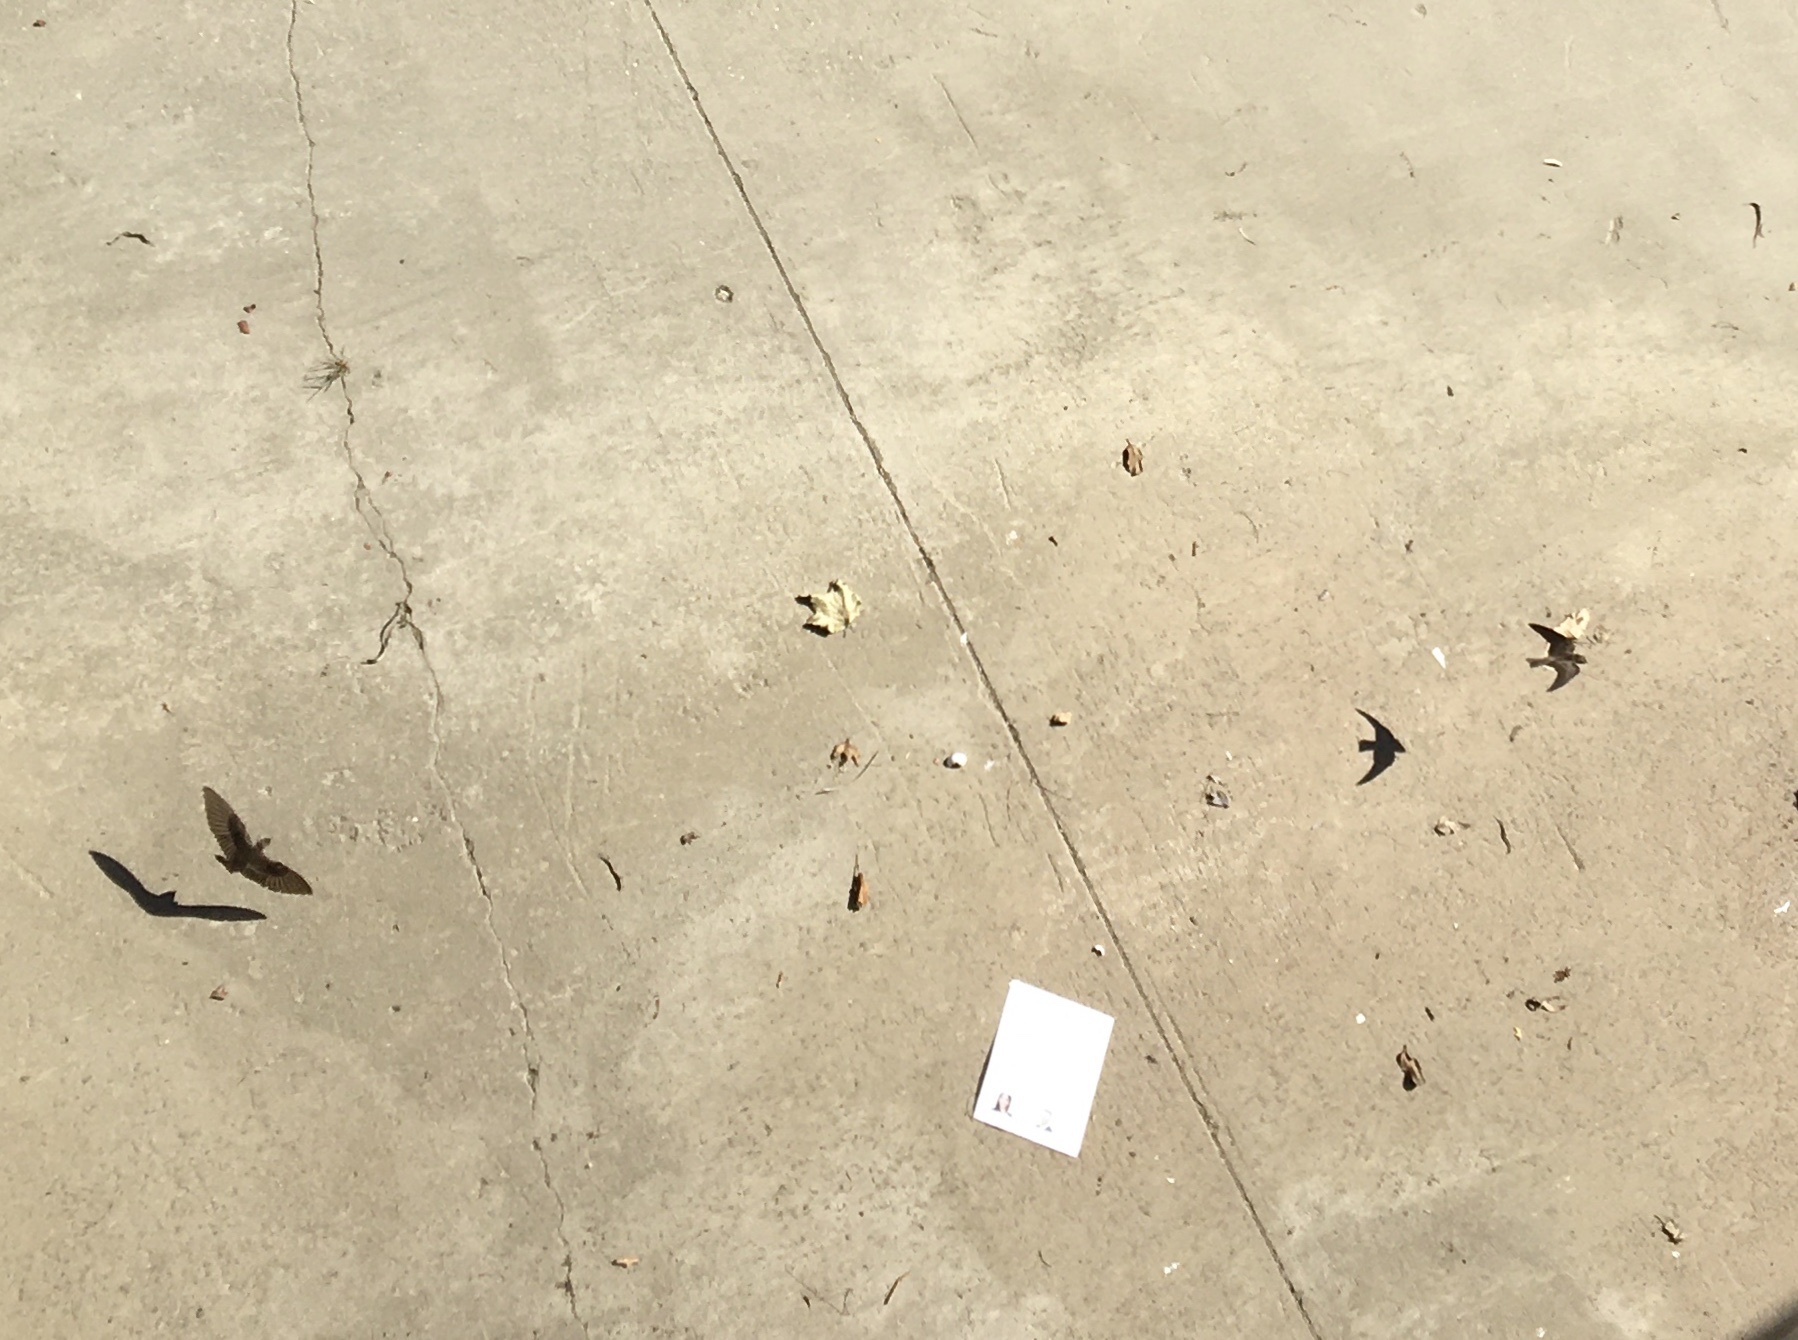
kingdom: Animalia
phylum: Chordata
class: Aves
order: Passeriformes
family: Hirundinidae
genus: Stelgidopteryx
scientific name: Stelgidopteryx serripennis
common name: Northern rough-winged swallow
